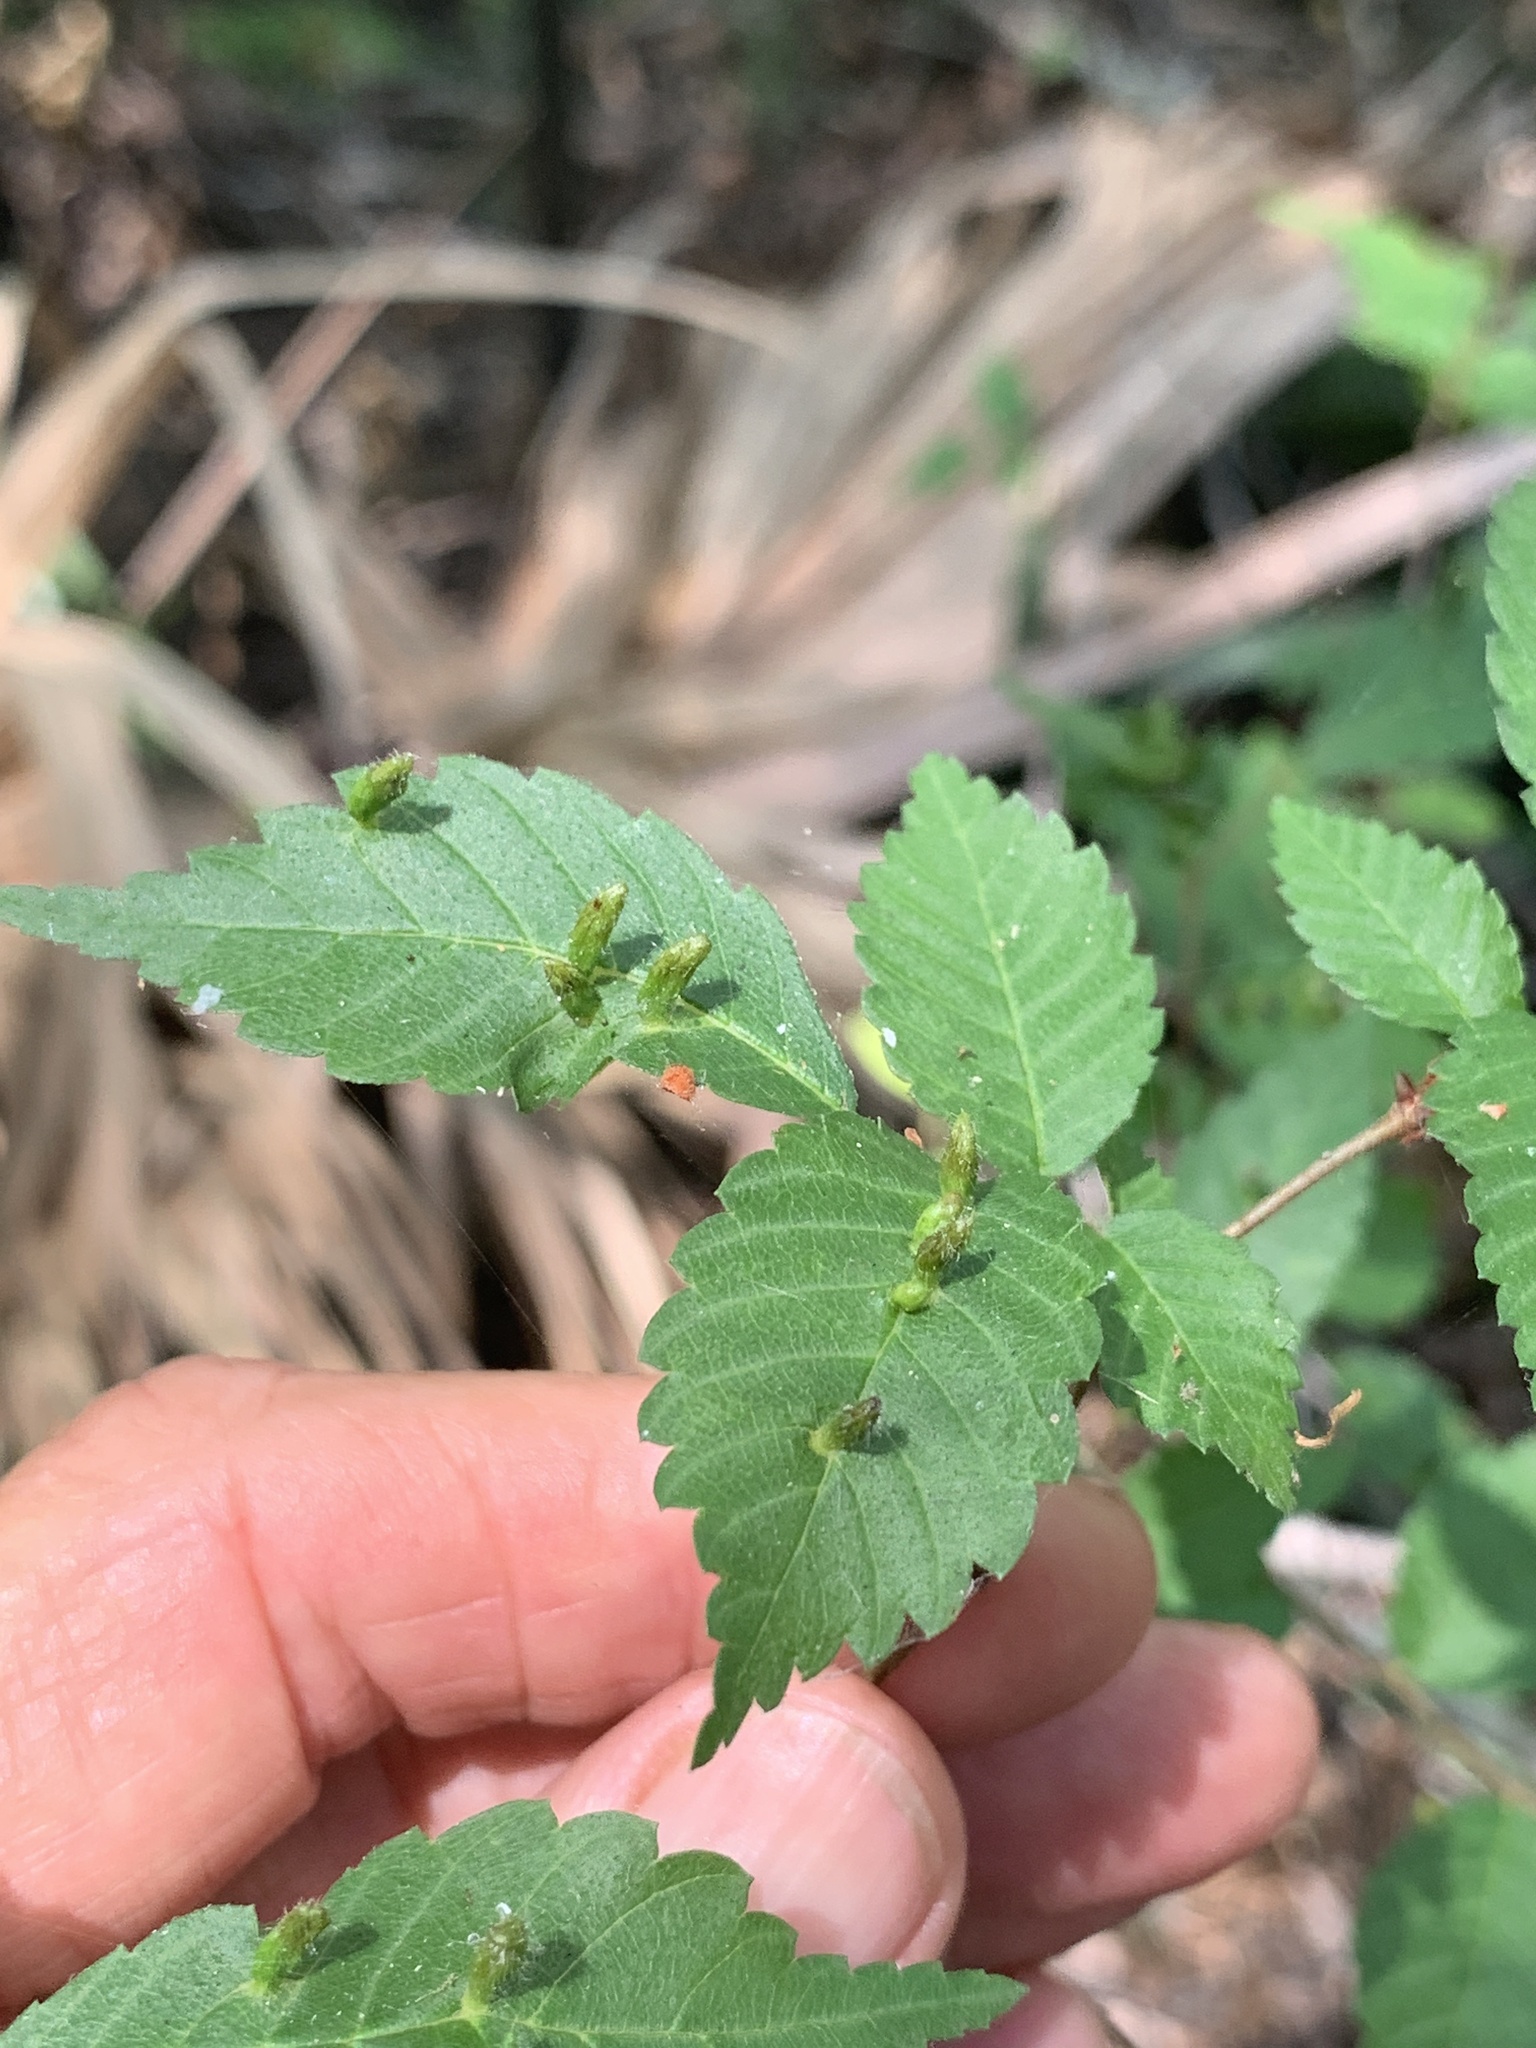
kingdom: Animalia
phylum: Arthropoda
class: Arachnida
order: Trombidiformes
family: Eriophyidae
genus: Aceria
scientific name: Aceria
